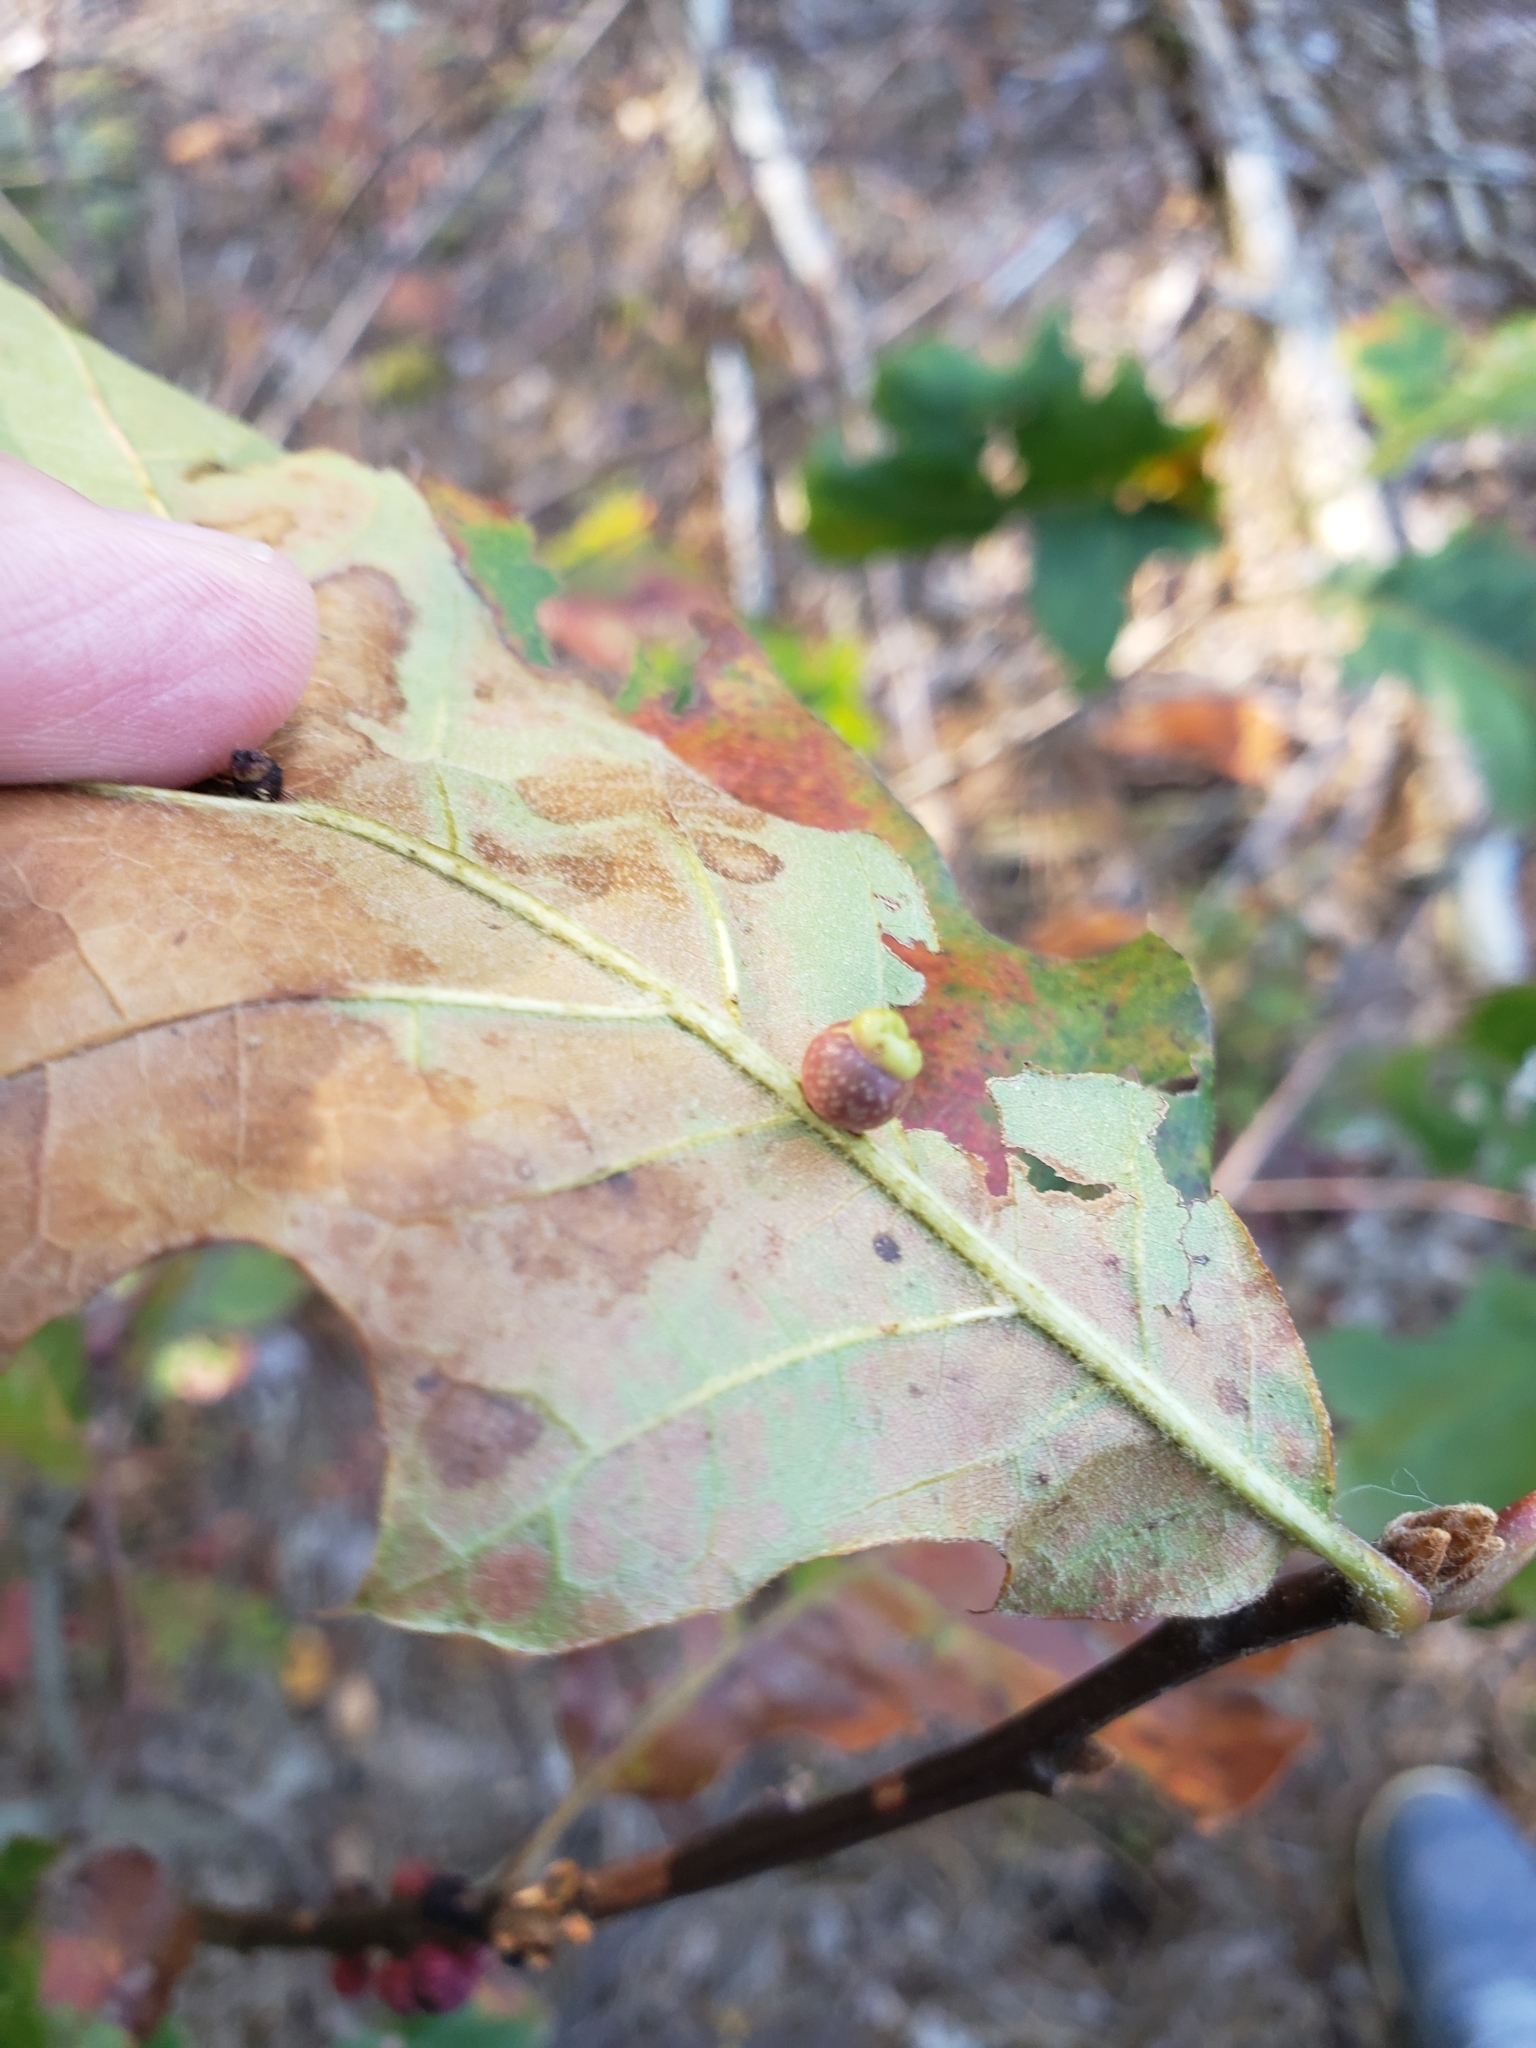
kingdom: Animalia
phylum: Arthropoda
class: Insecta
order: Hymenoptera
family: Cynipidae
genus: Kokkocynips
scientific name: Kokkocynips rileyi
